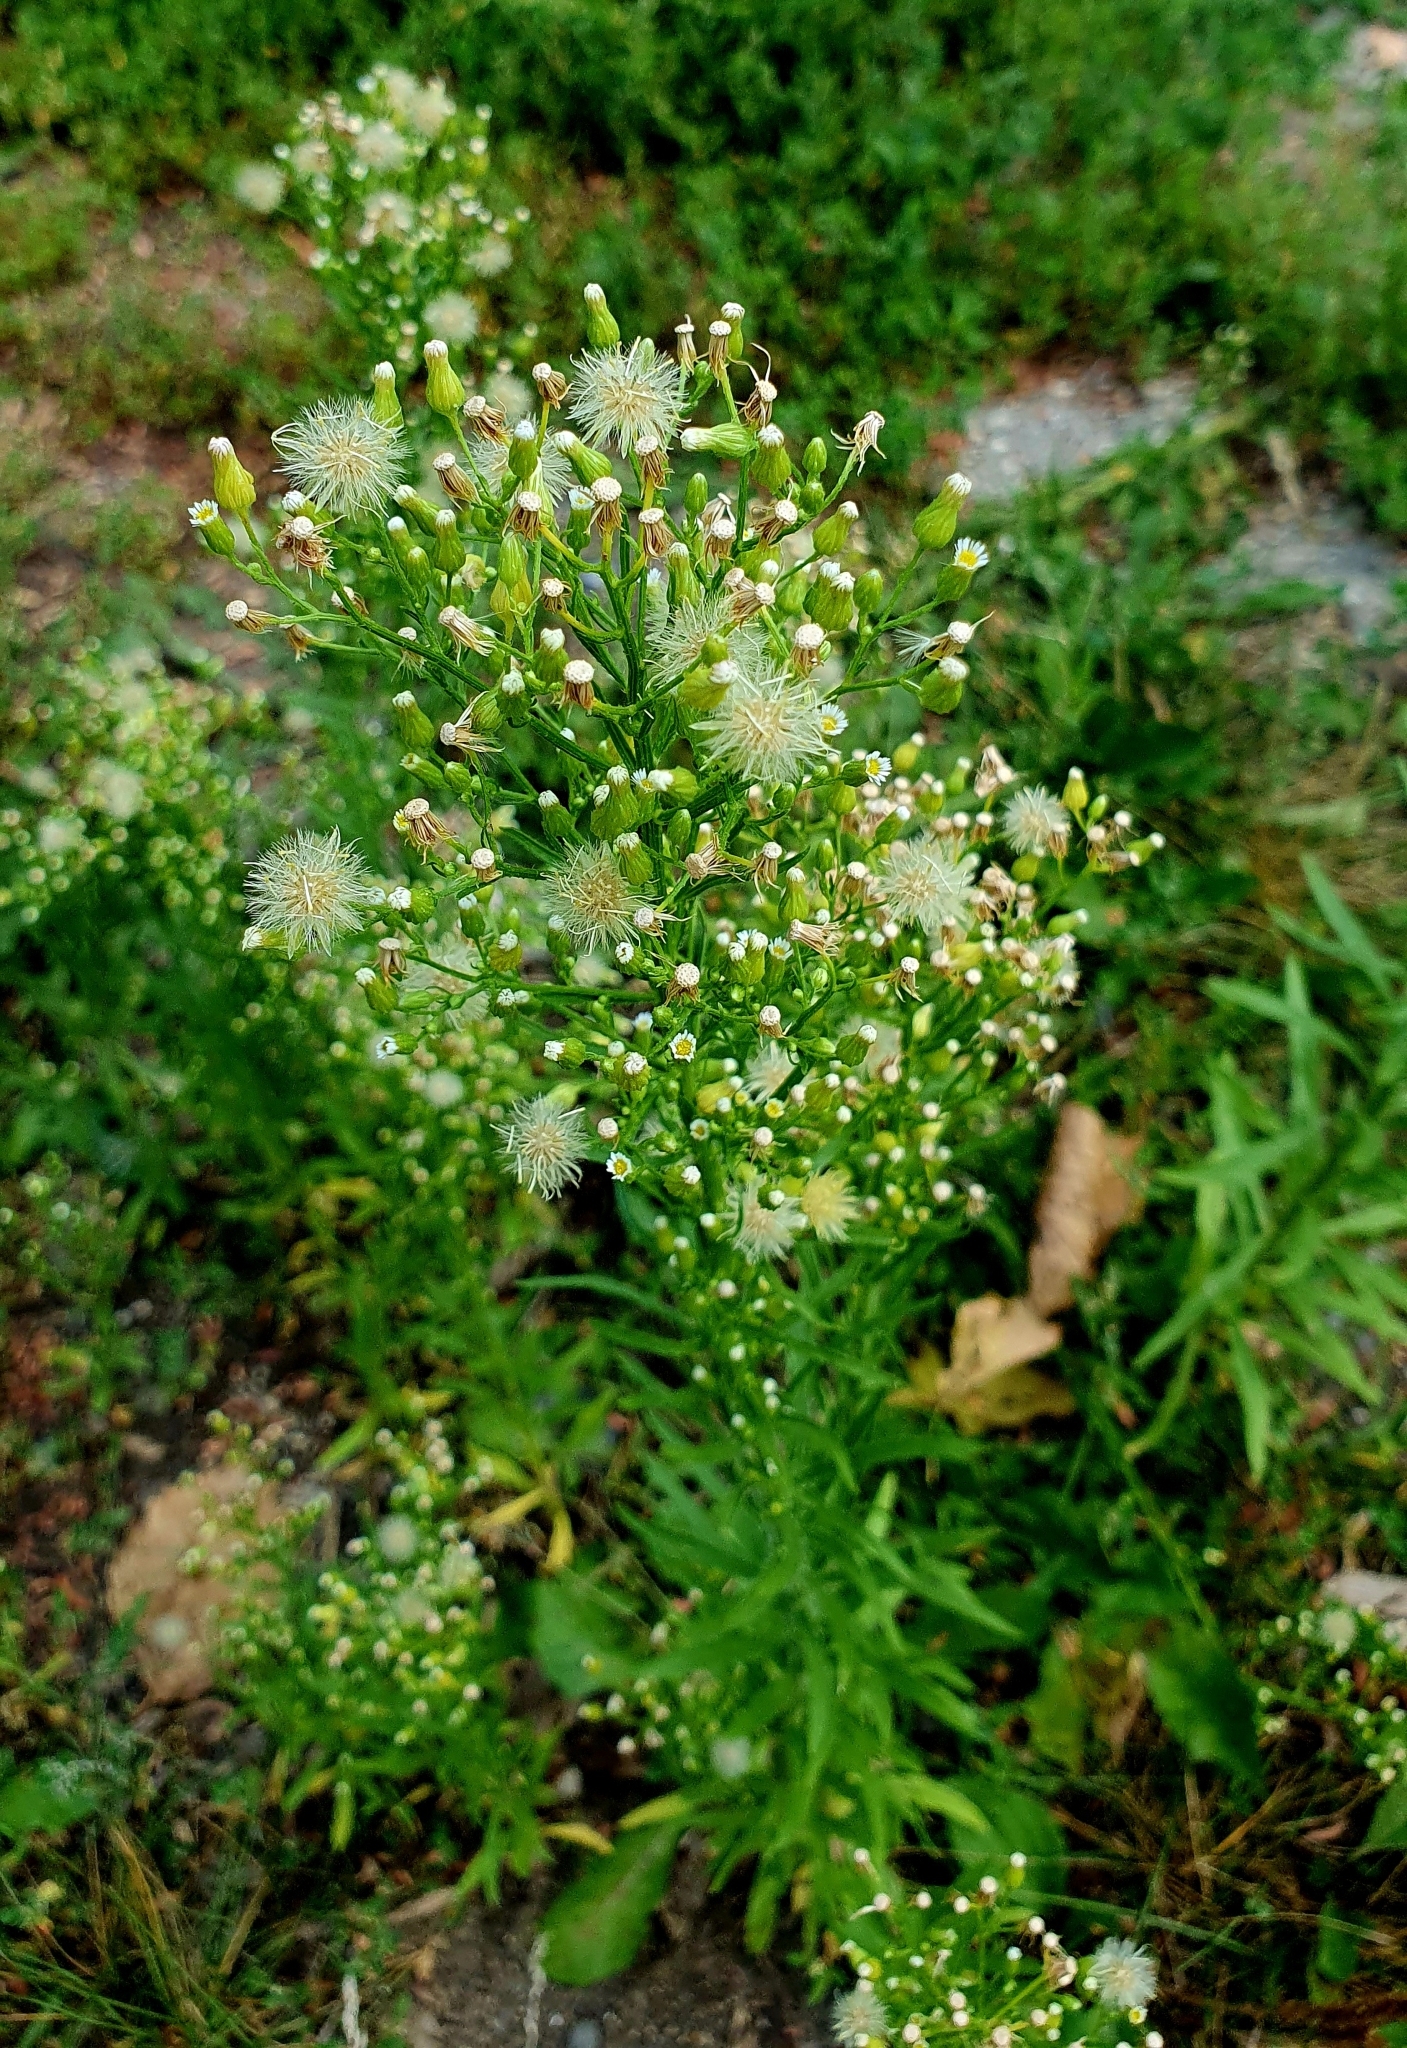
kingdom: Plantae
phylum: Tracheophyta
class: Magnoliopsida
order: Asterales
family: Asteraceae
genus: Erigeron
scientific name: Erigeron canadensis
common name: Canadian fleabane
